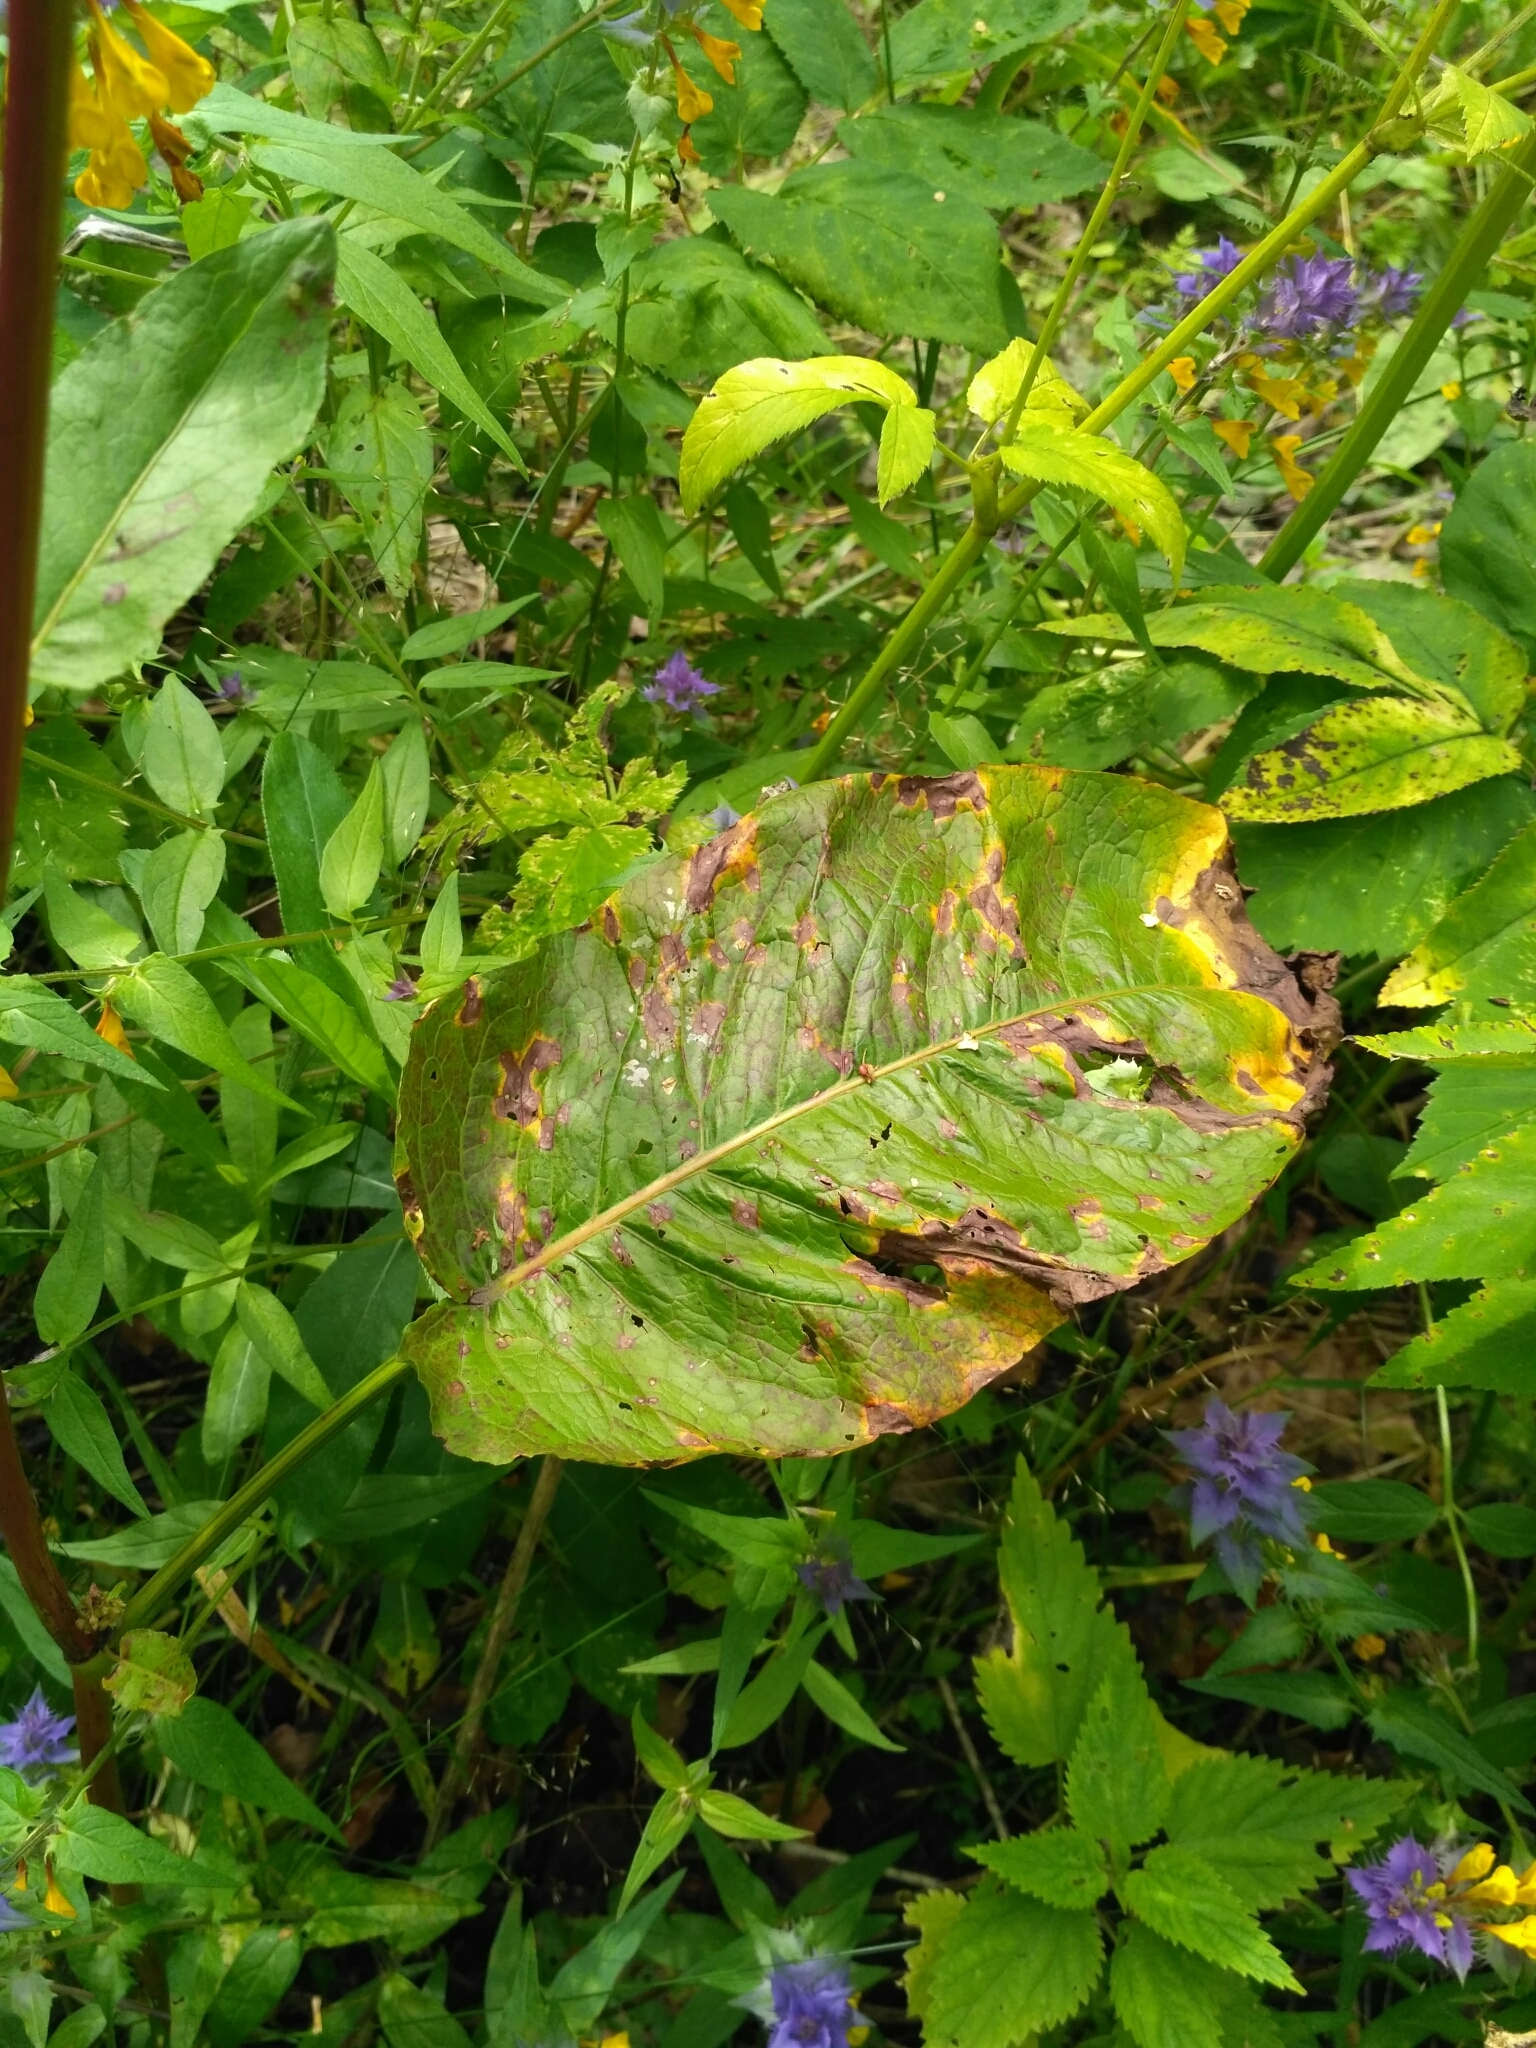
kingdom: Plantae
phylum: Tracheophyta
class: Magnoliopsida
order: Caryophyllales
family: Polygonaceae
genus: Rumex
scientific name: Rumex obtusifolius
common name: Bitter dock
